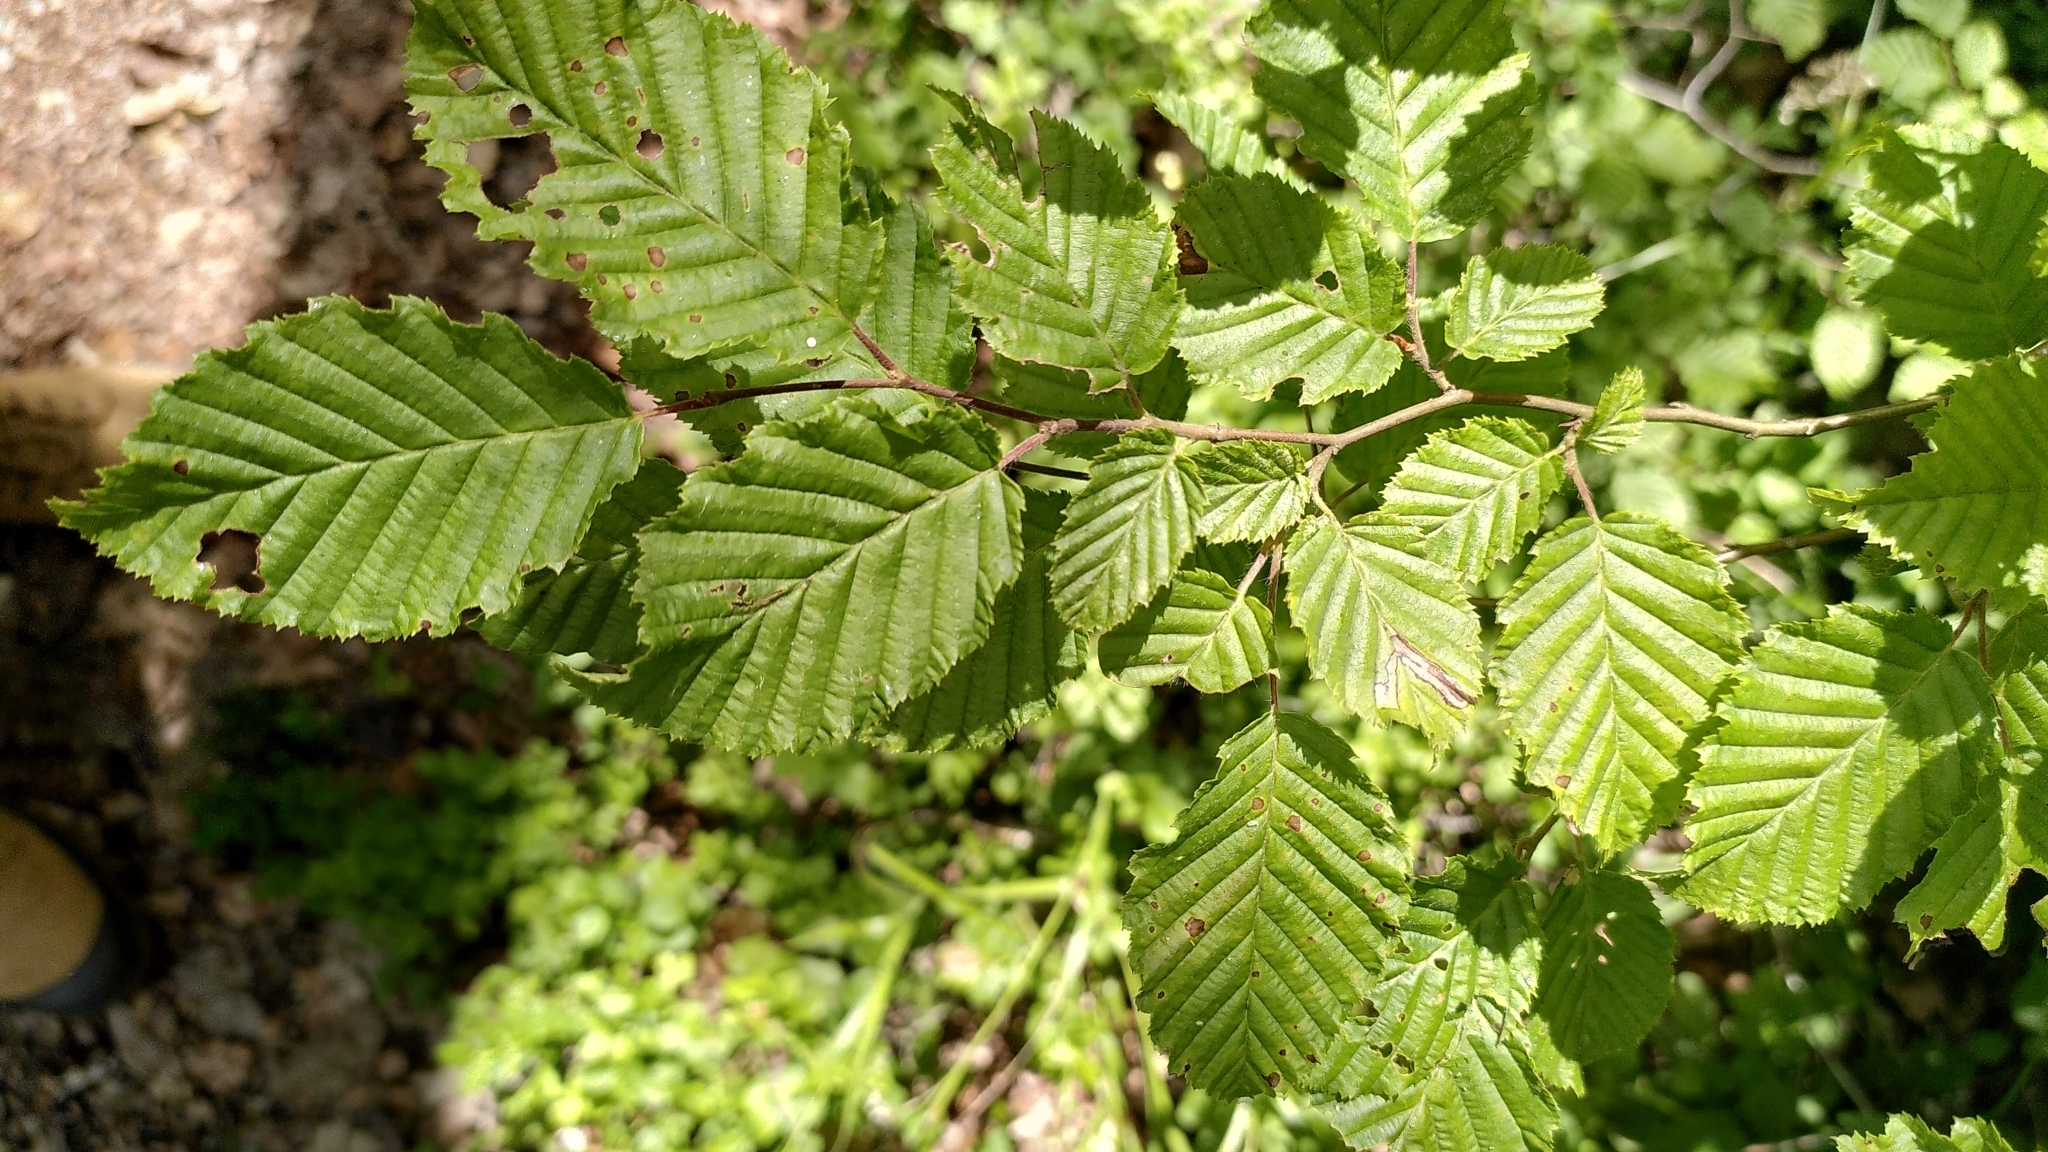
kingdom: Plantae
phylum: Tracheophyta
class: Magnoliopsida
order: Fagales
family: Betulaceae
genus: Carpinus
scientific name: Carpinus betulus
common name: Hornbeam
